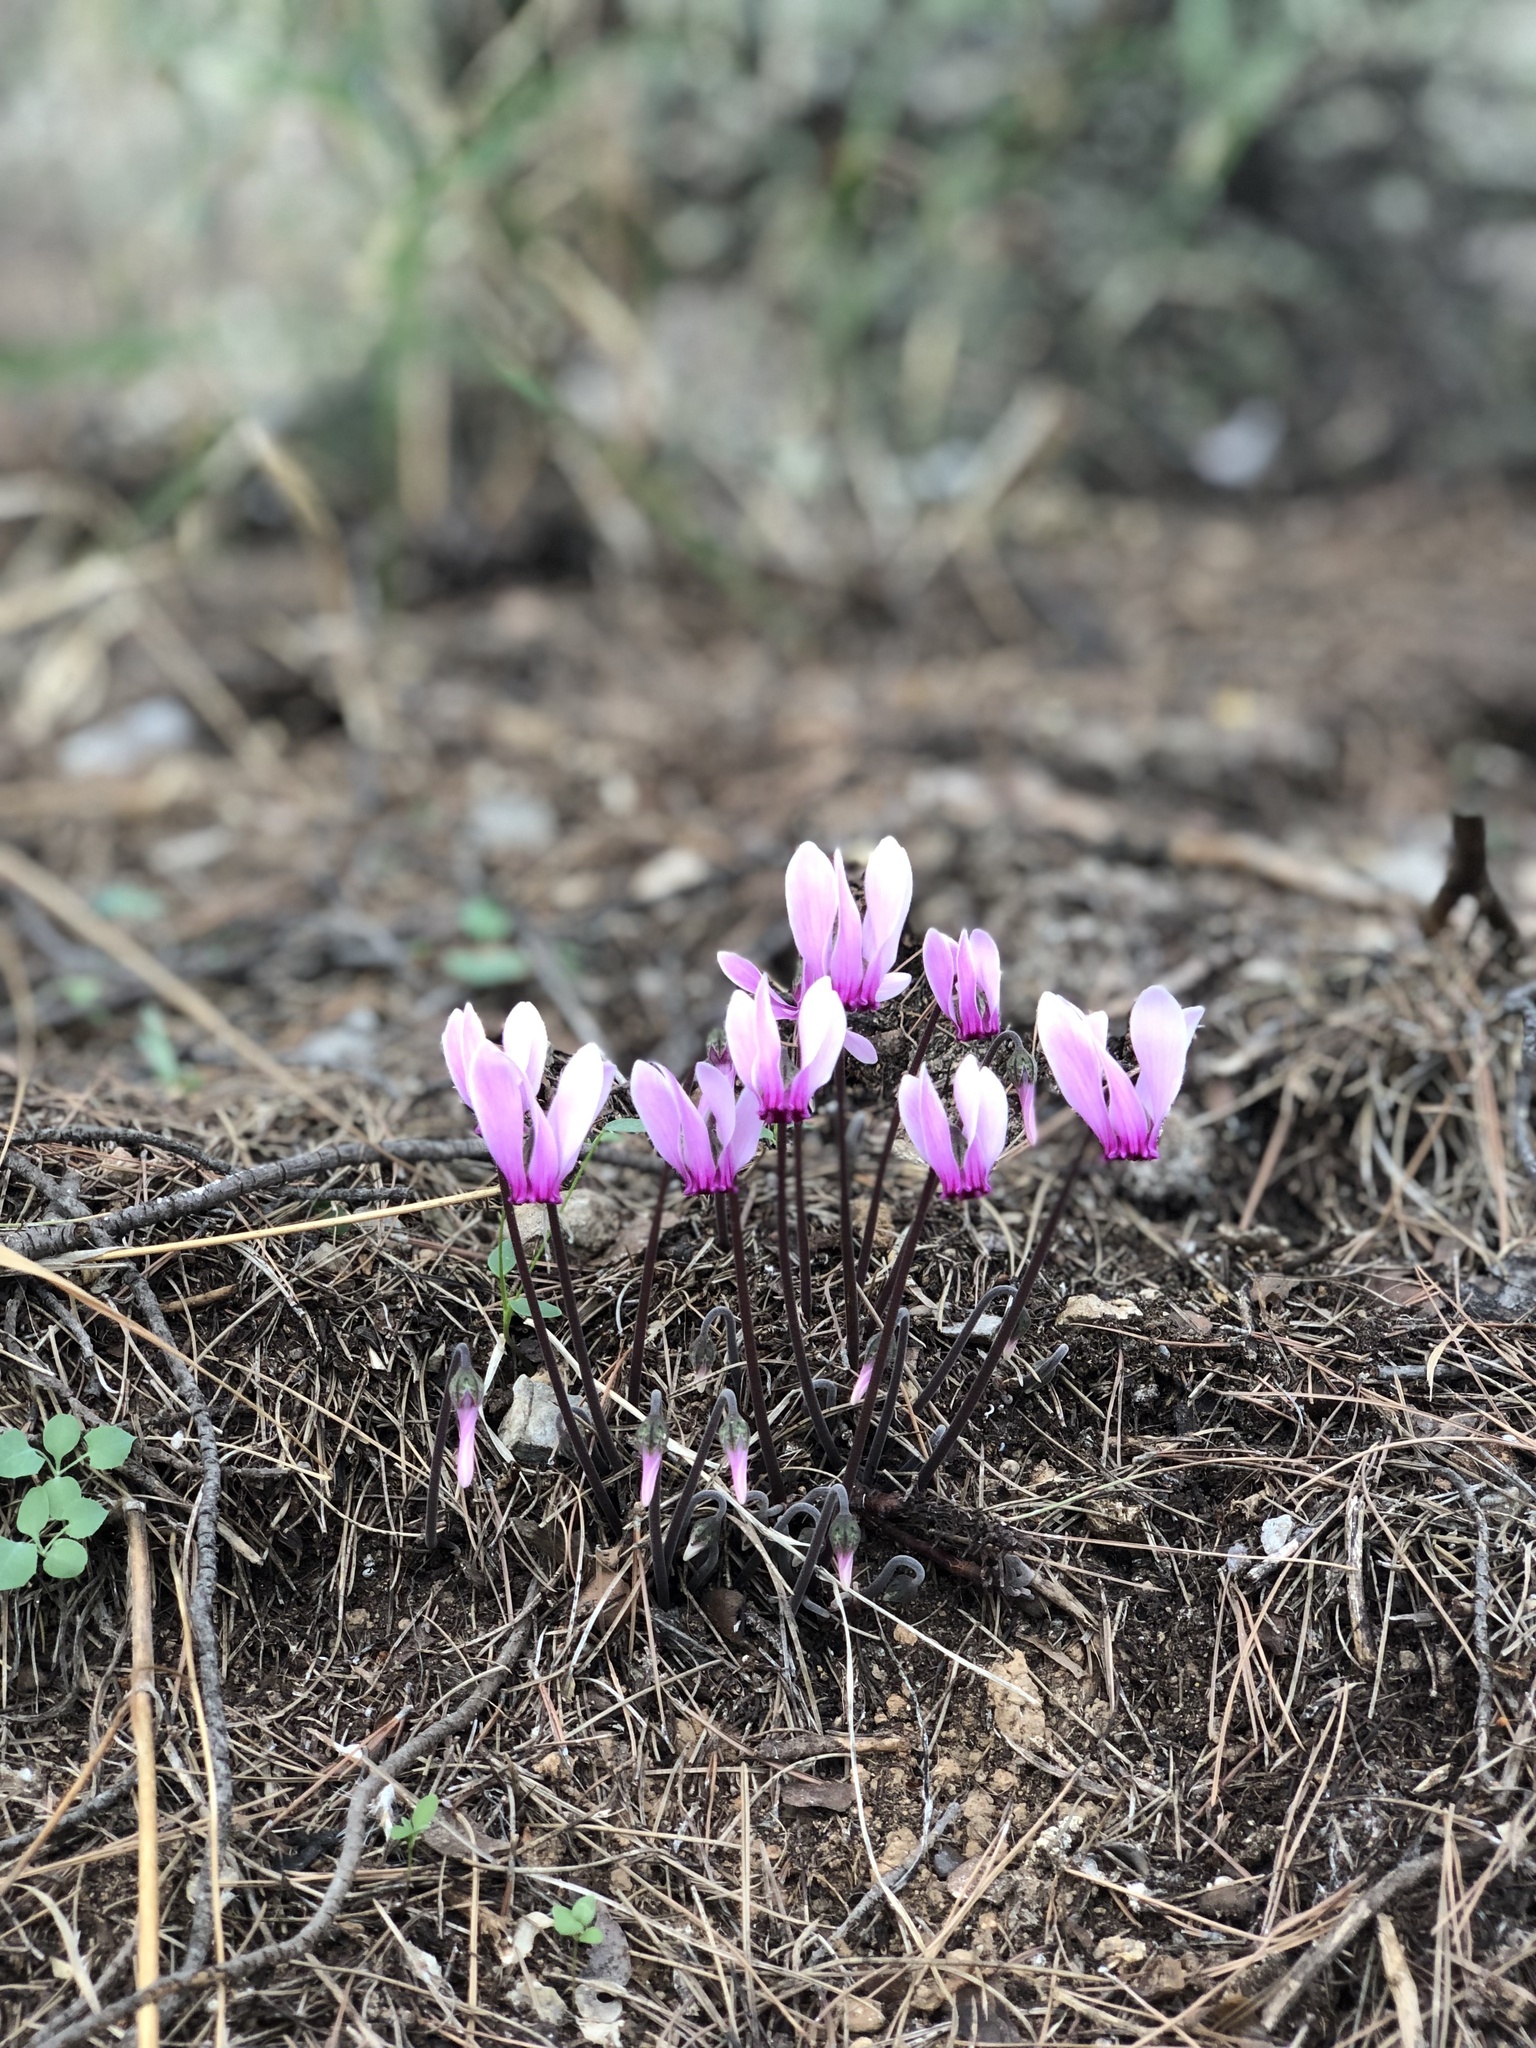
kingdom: Plantae
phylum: Tracheophyta
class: Magnoliopsida
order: Ericales
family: Primulaceae
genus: Cyclamen
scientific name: Cyclamen graecum
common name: Greek cyclamen
